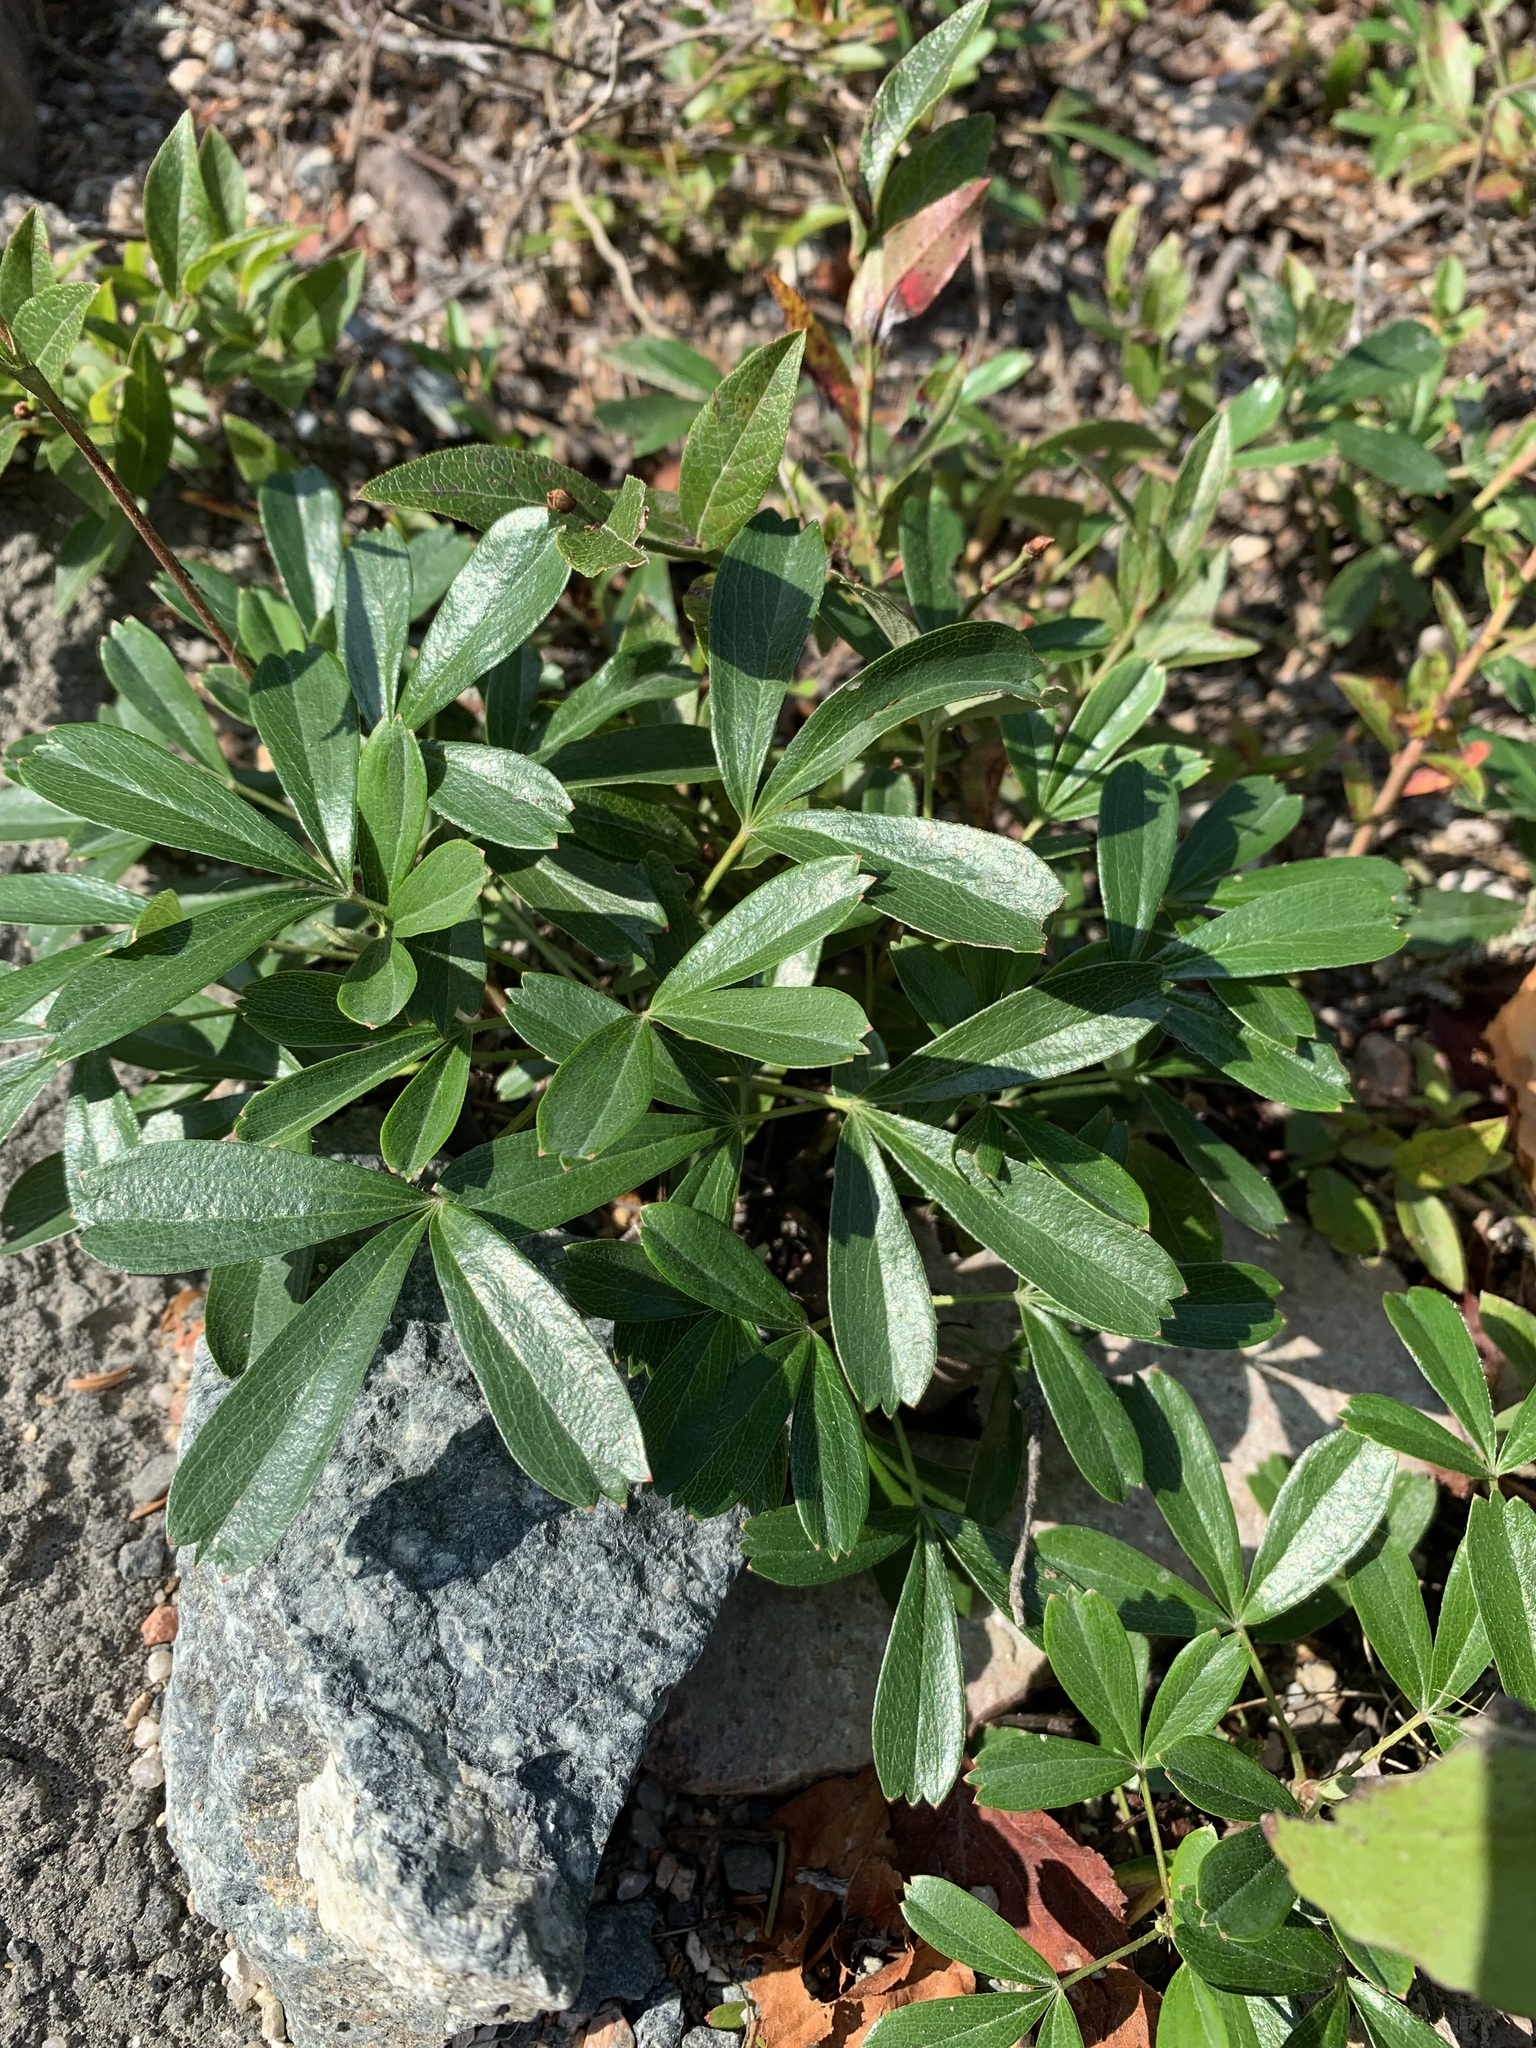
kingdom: Plantae
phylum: Tracheophyta
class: Magnoliopsida
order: Rosales
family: Rosaceae
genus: Sibbaldia
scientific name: Sibbaldia tridentata
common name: Three-toothed cinquefoil
